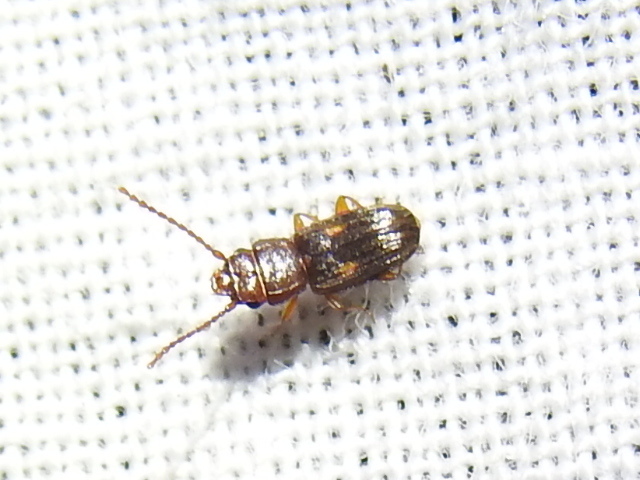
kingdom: Animalia
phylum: Arthropoda
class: Insecta
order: Coleoptera
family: Laemophloeidae
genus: Laemophloeus
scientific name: Laemophloeus biguttatus
